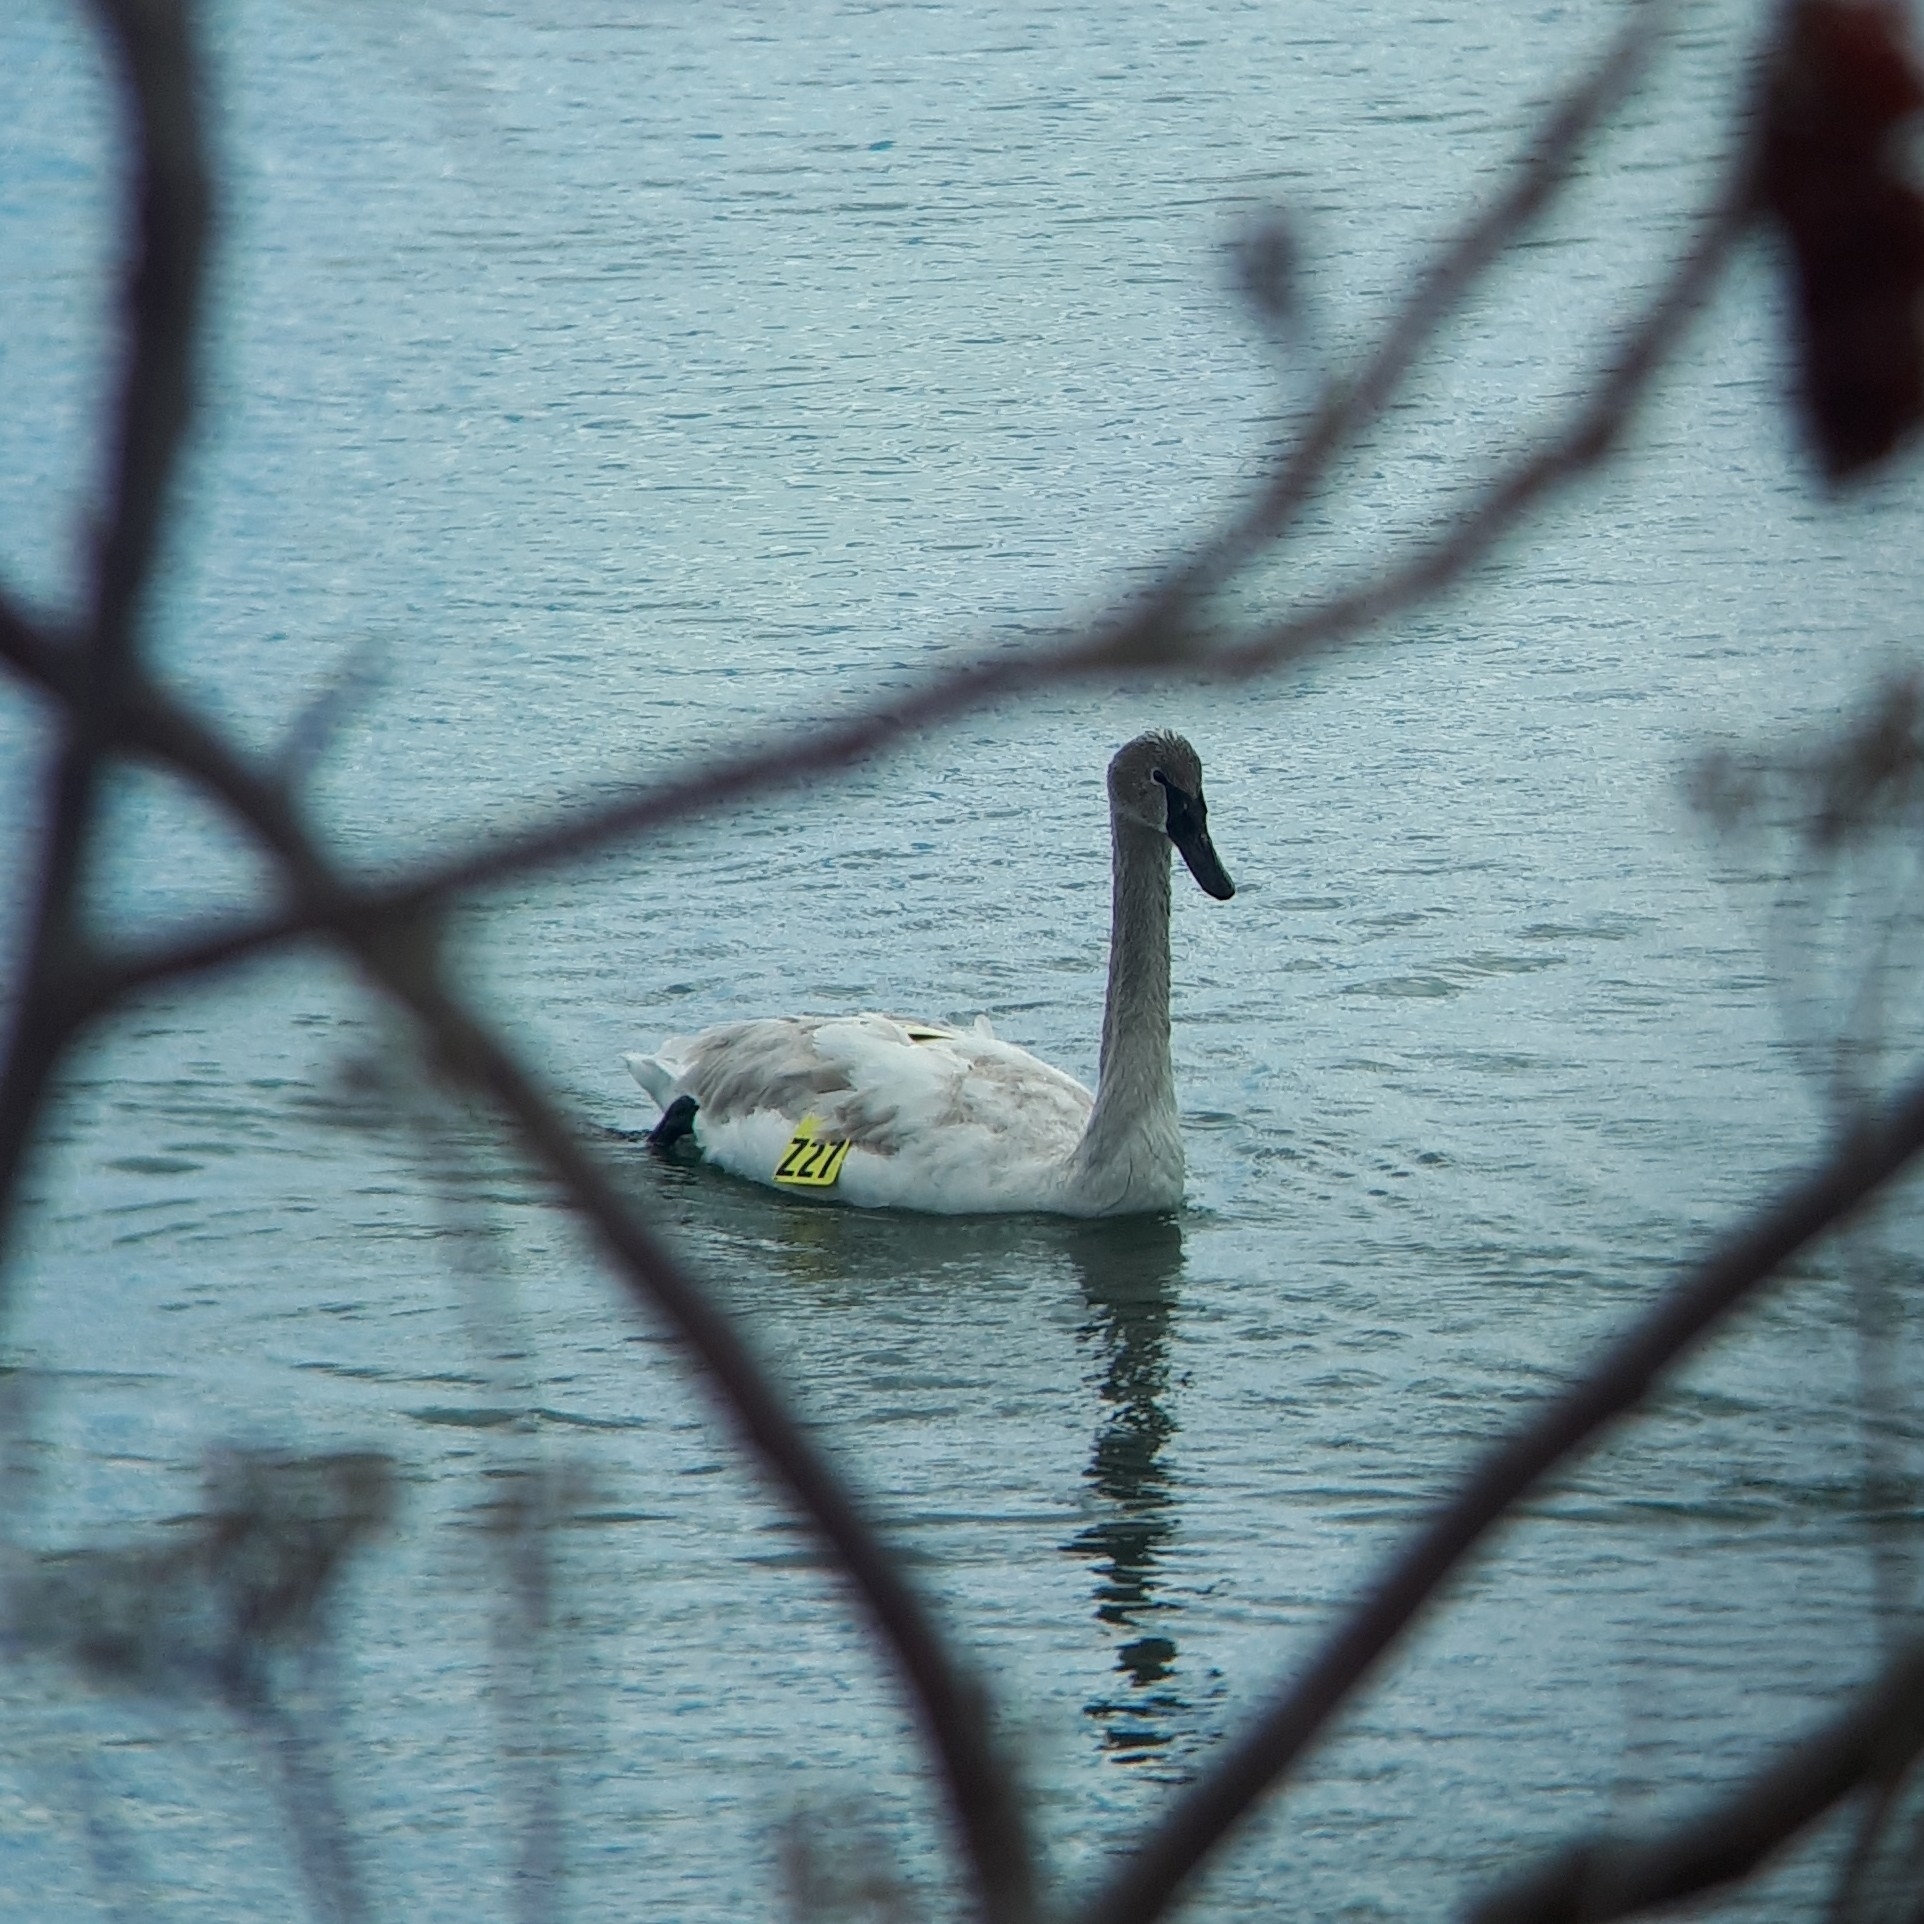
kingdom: Animalia
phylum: Chordata
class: Aves
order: Anseriformes
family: Anatidae
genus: Cygnus
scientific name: Cygnus buccinator
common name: Trumpeter swan
